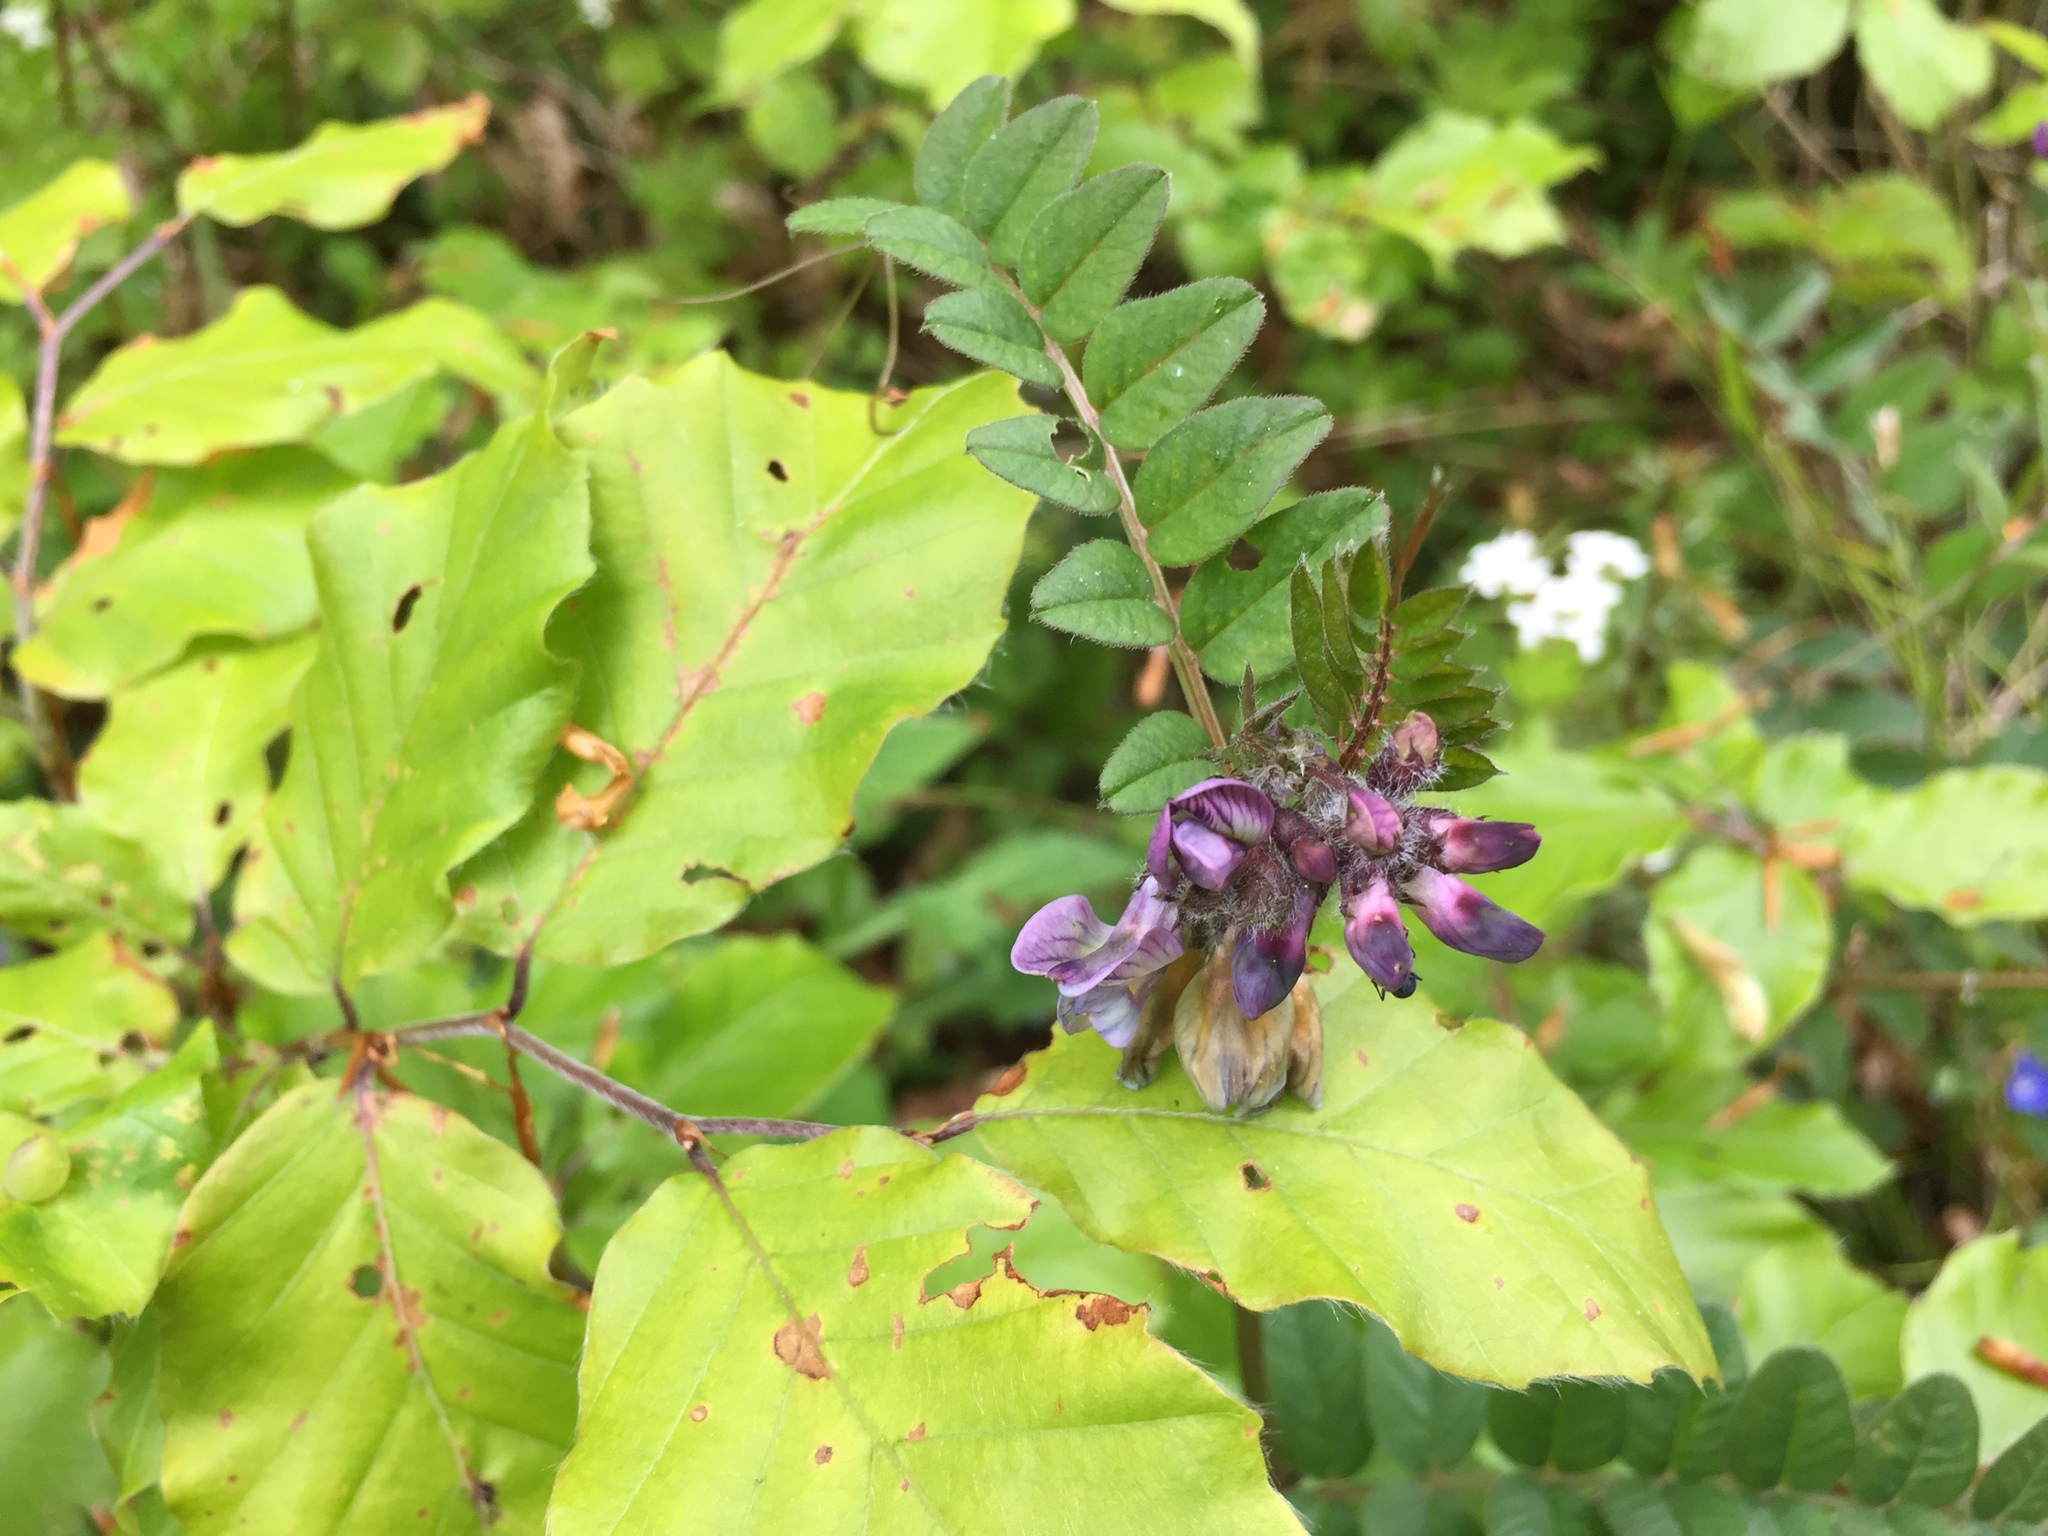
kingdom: Plantae
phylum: Tracheophyta
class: Magnoliopsida
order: Fabales
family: Fabaceae
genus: Vicia
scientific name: Vicia sepium
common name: Bush vetch
